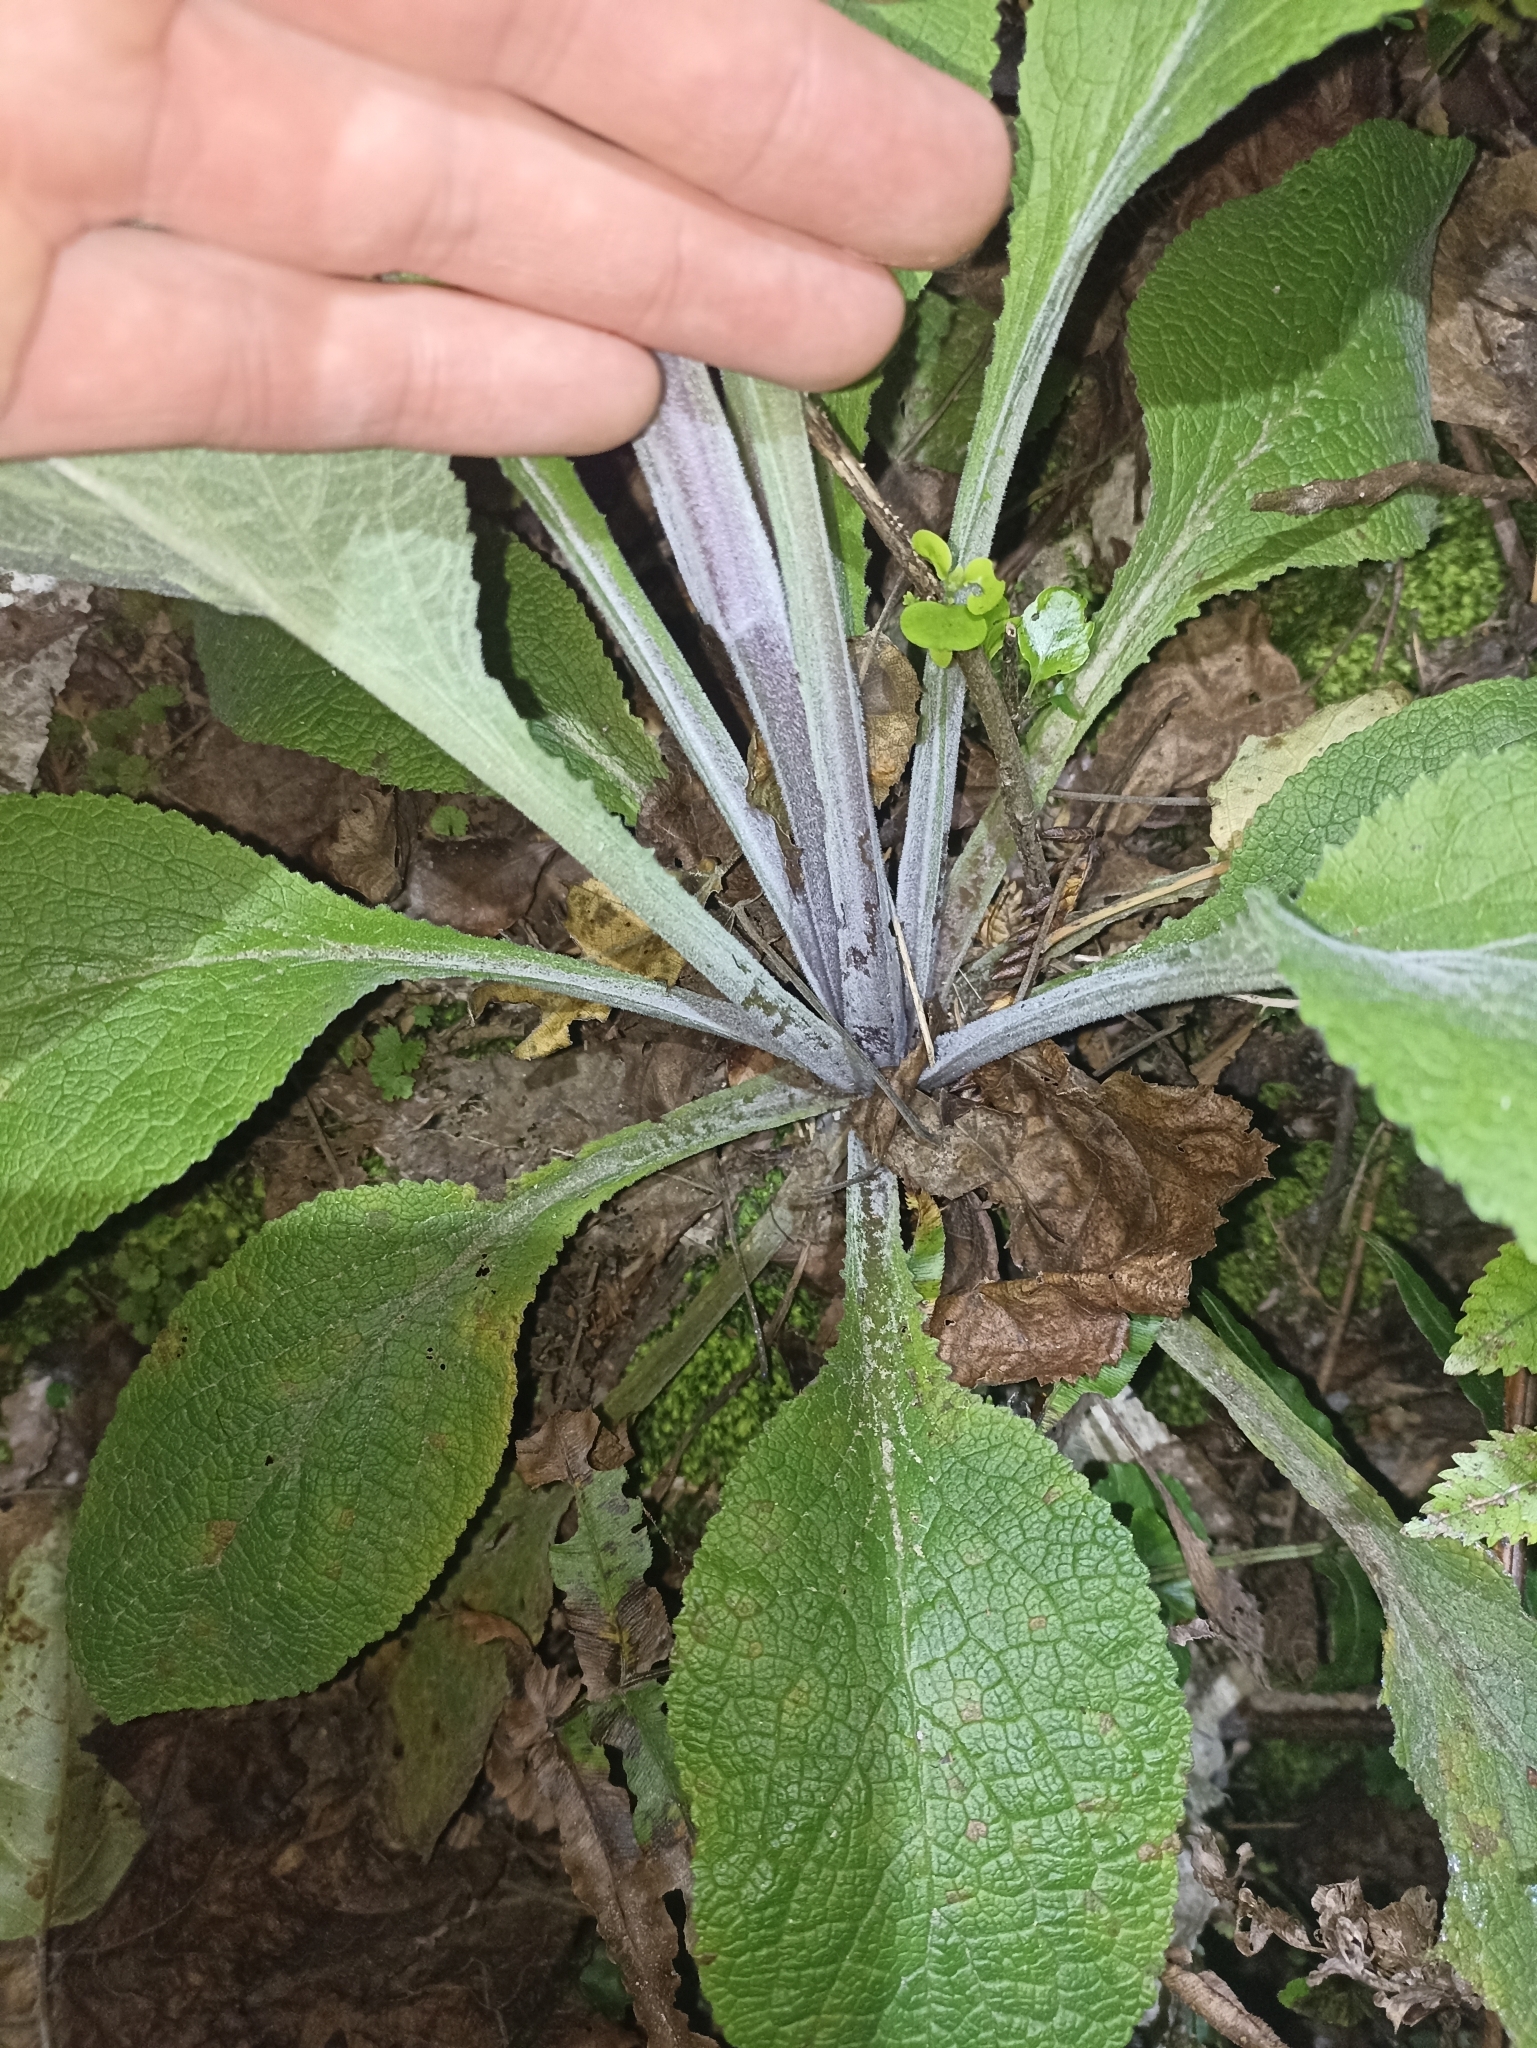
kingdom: Plantae
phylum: Tracheophyta
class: Magnoliopsida
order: Lamiales
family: Plantaginaceae
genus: Digitalis
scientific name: Digitalis purpurea
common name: Foxglove
